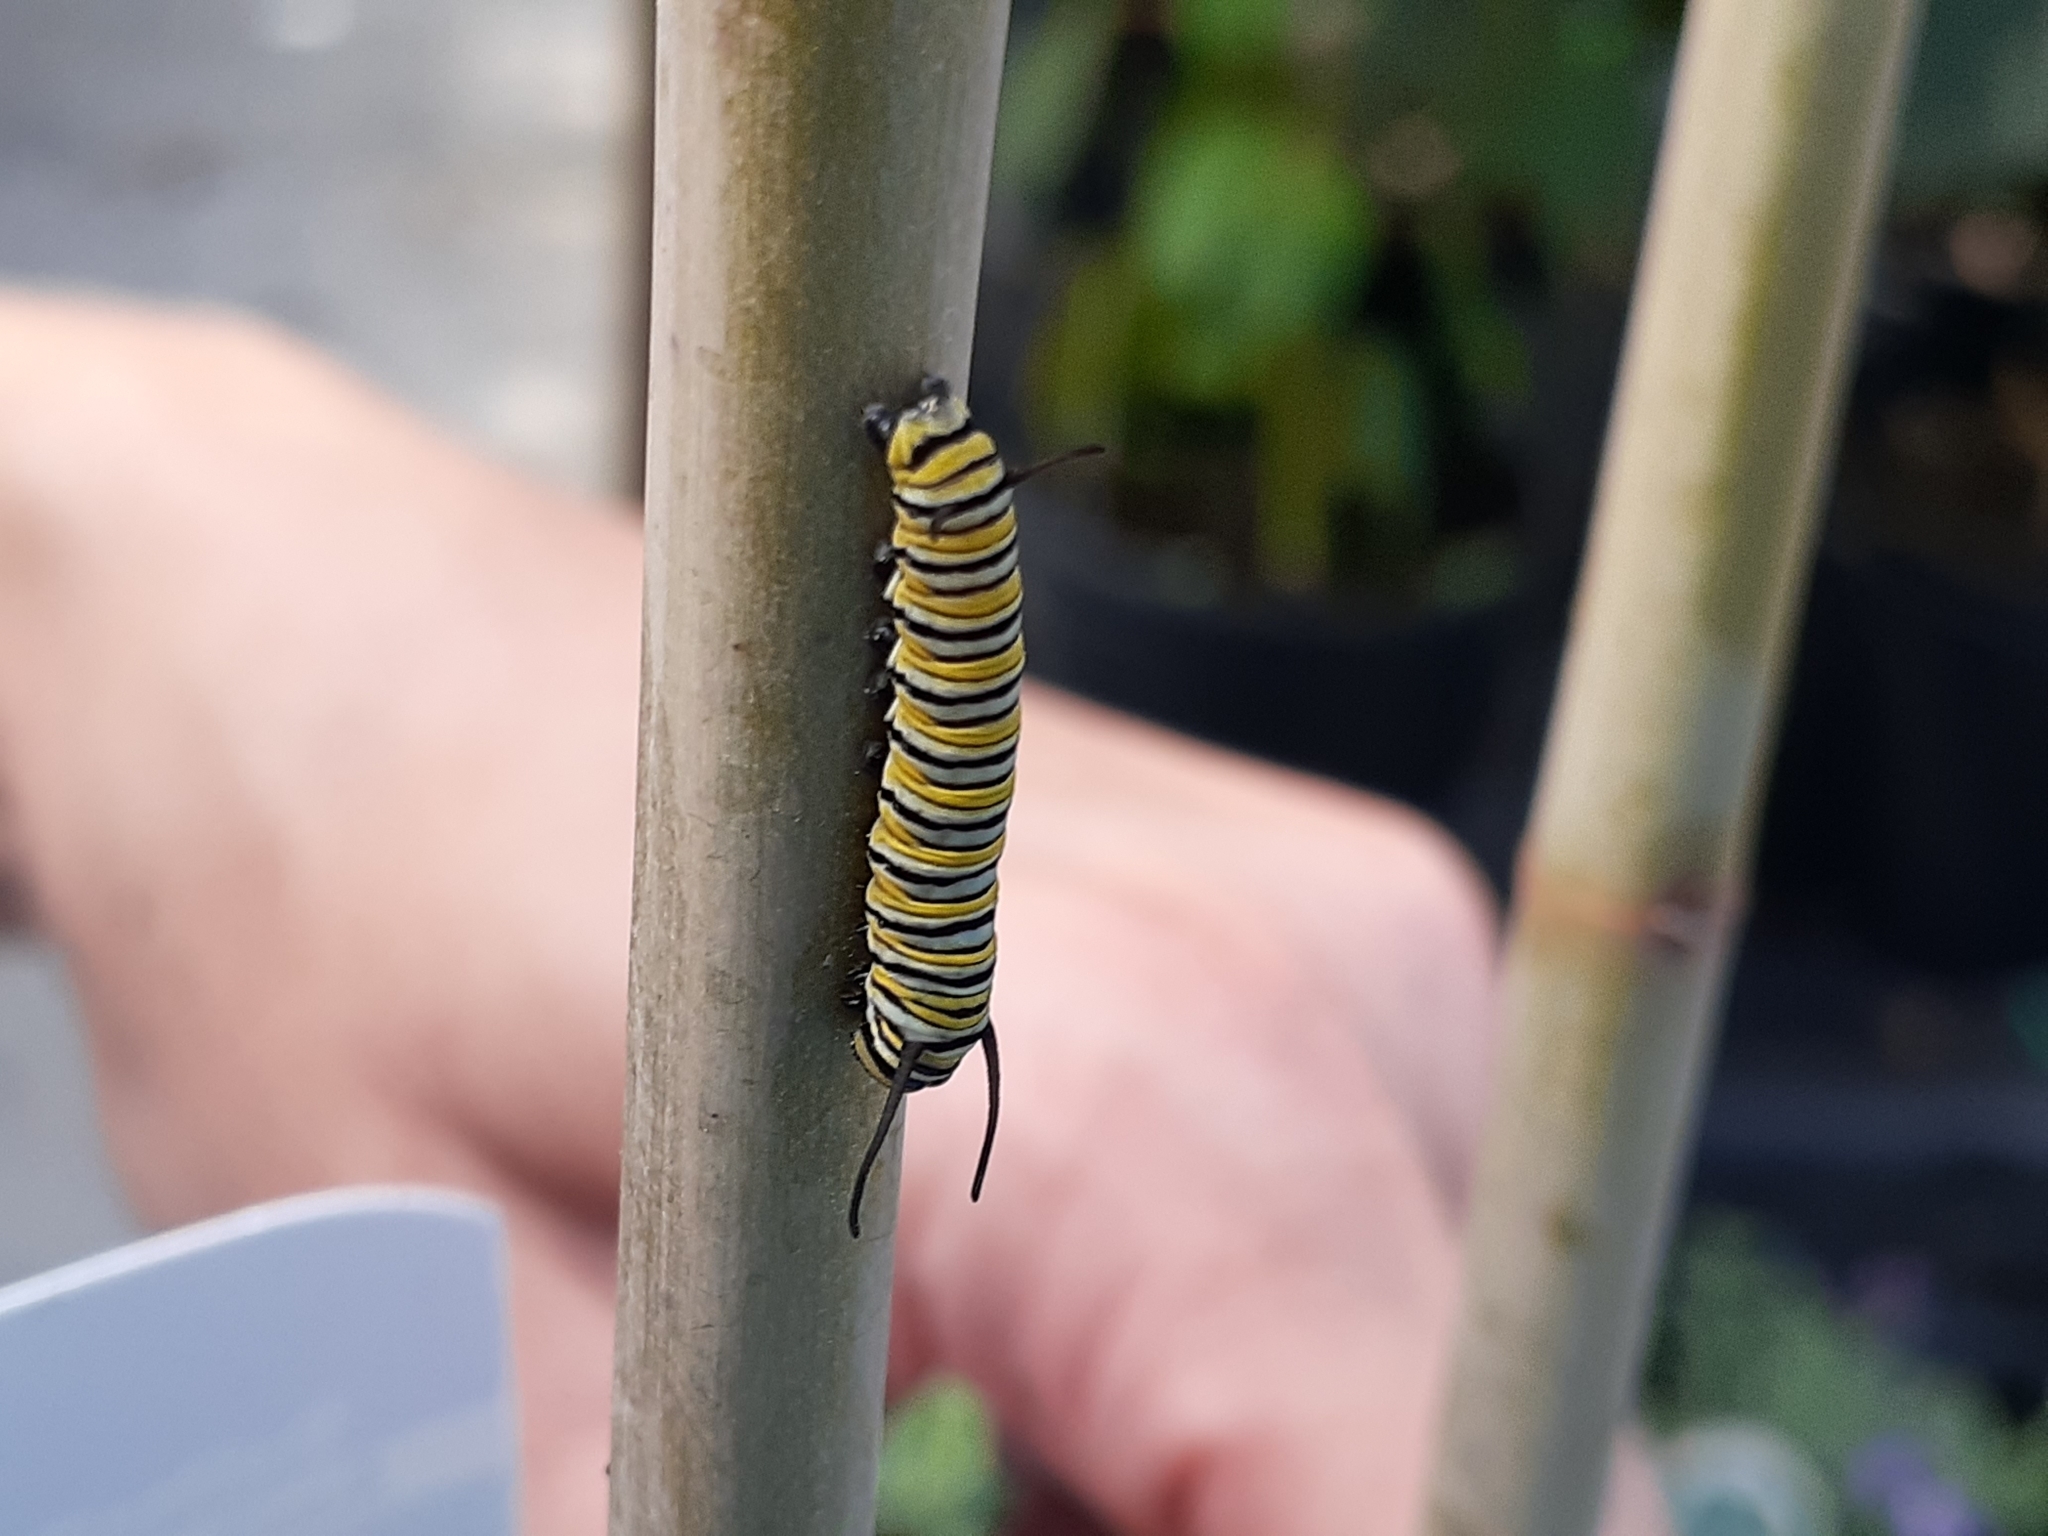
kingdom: Animalia
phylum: Arthropoda
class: Insecta
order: Lepidoptera
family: Nymphalidae
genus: Danaus
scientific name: Danaus plexippus
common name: Monarch
